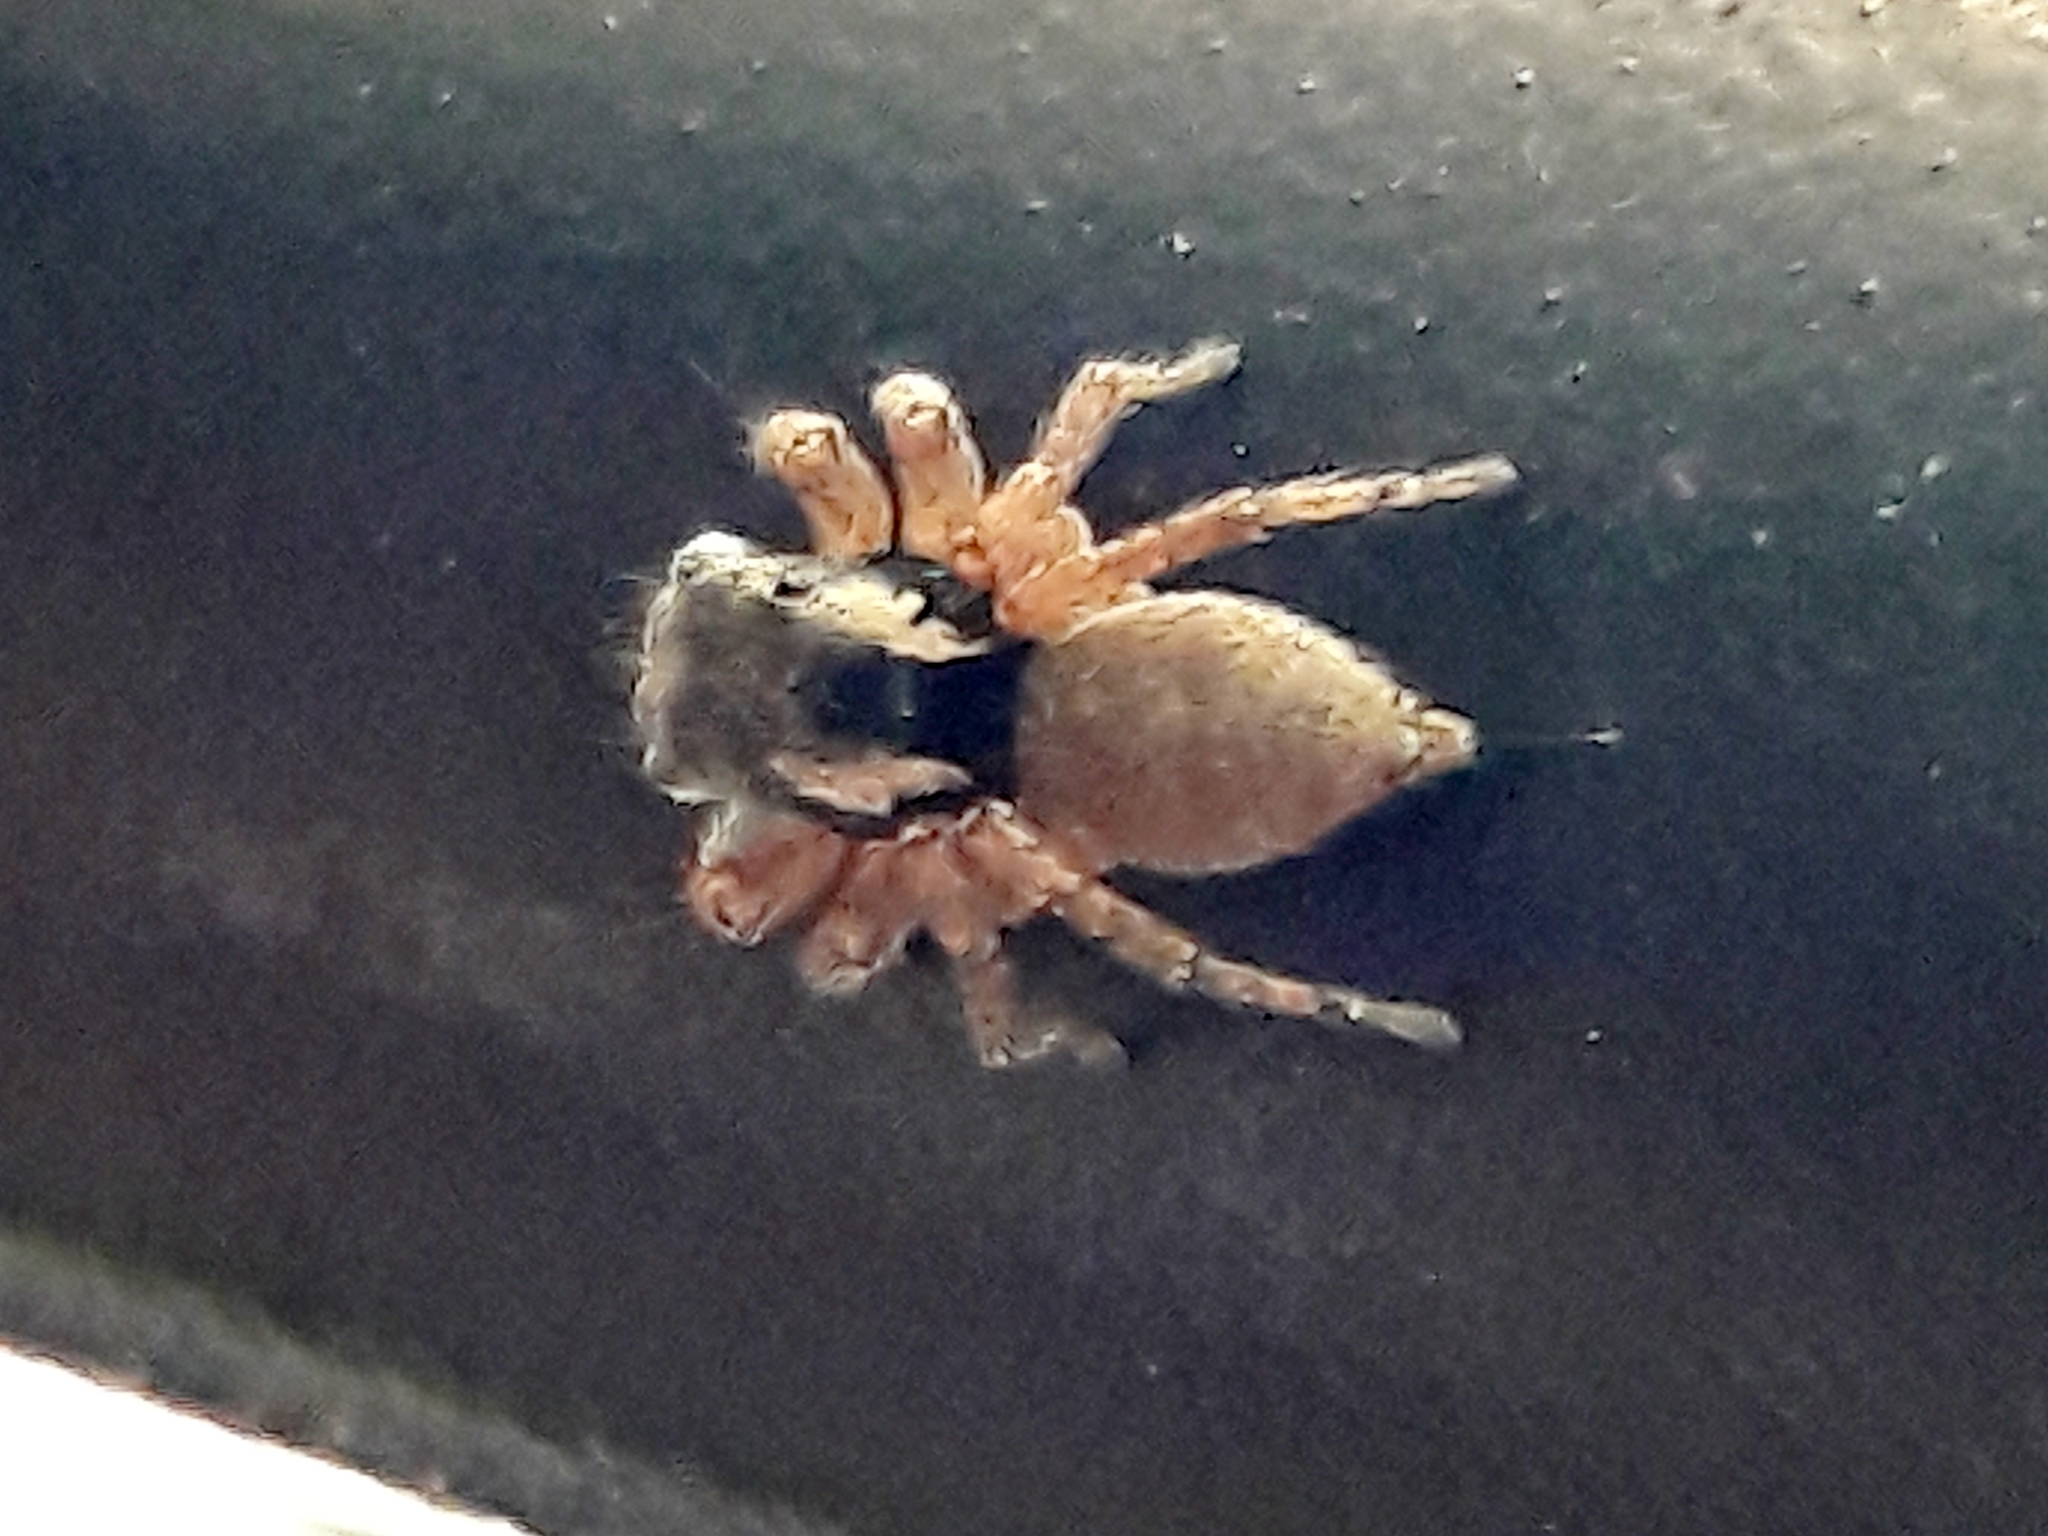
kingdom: Animalia
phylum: Arthropoda
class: Arachnida
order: Araneae
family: Salticidae
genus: Sumampattus
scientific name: Sumampattus quinqueradiatus
